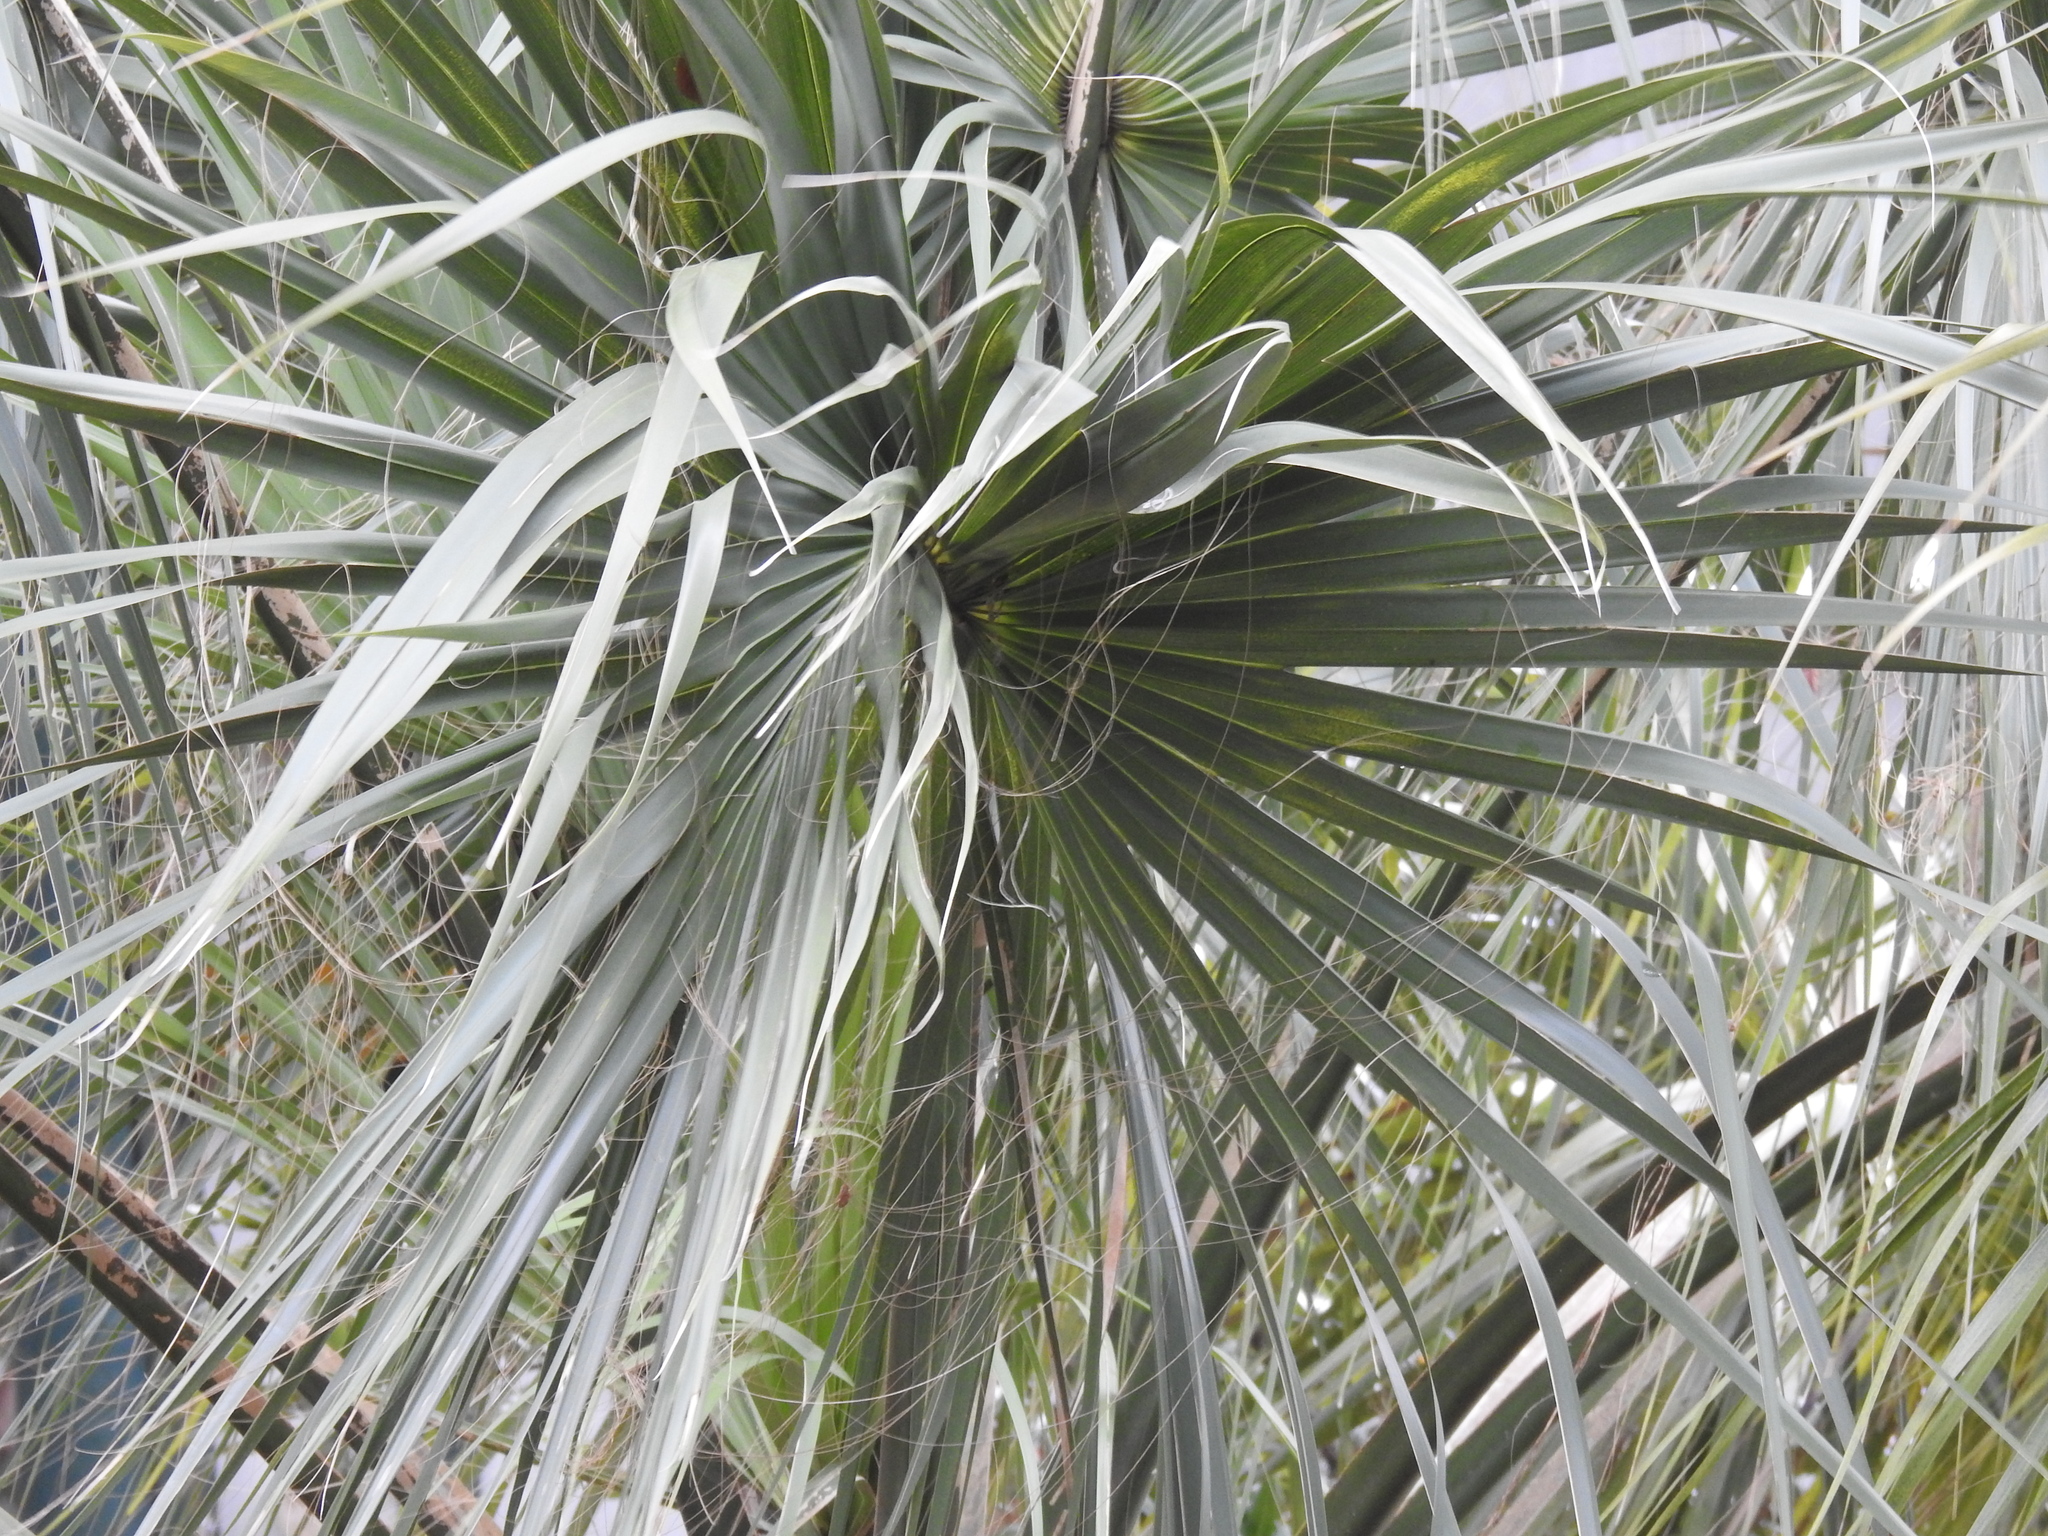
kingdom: Plantae
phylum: Tracheophyta
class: Liliopsida
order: Arecales
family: Arecaceae
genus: Sabal
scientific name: Sabal palmetto
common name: Blue palmetto
